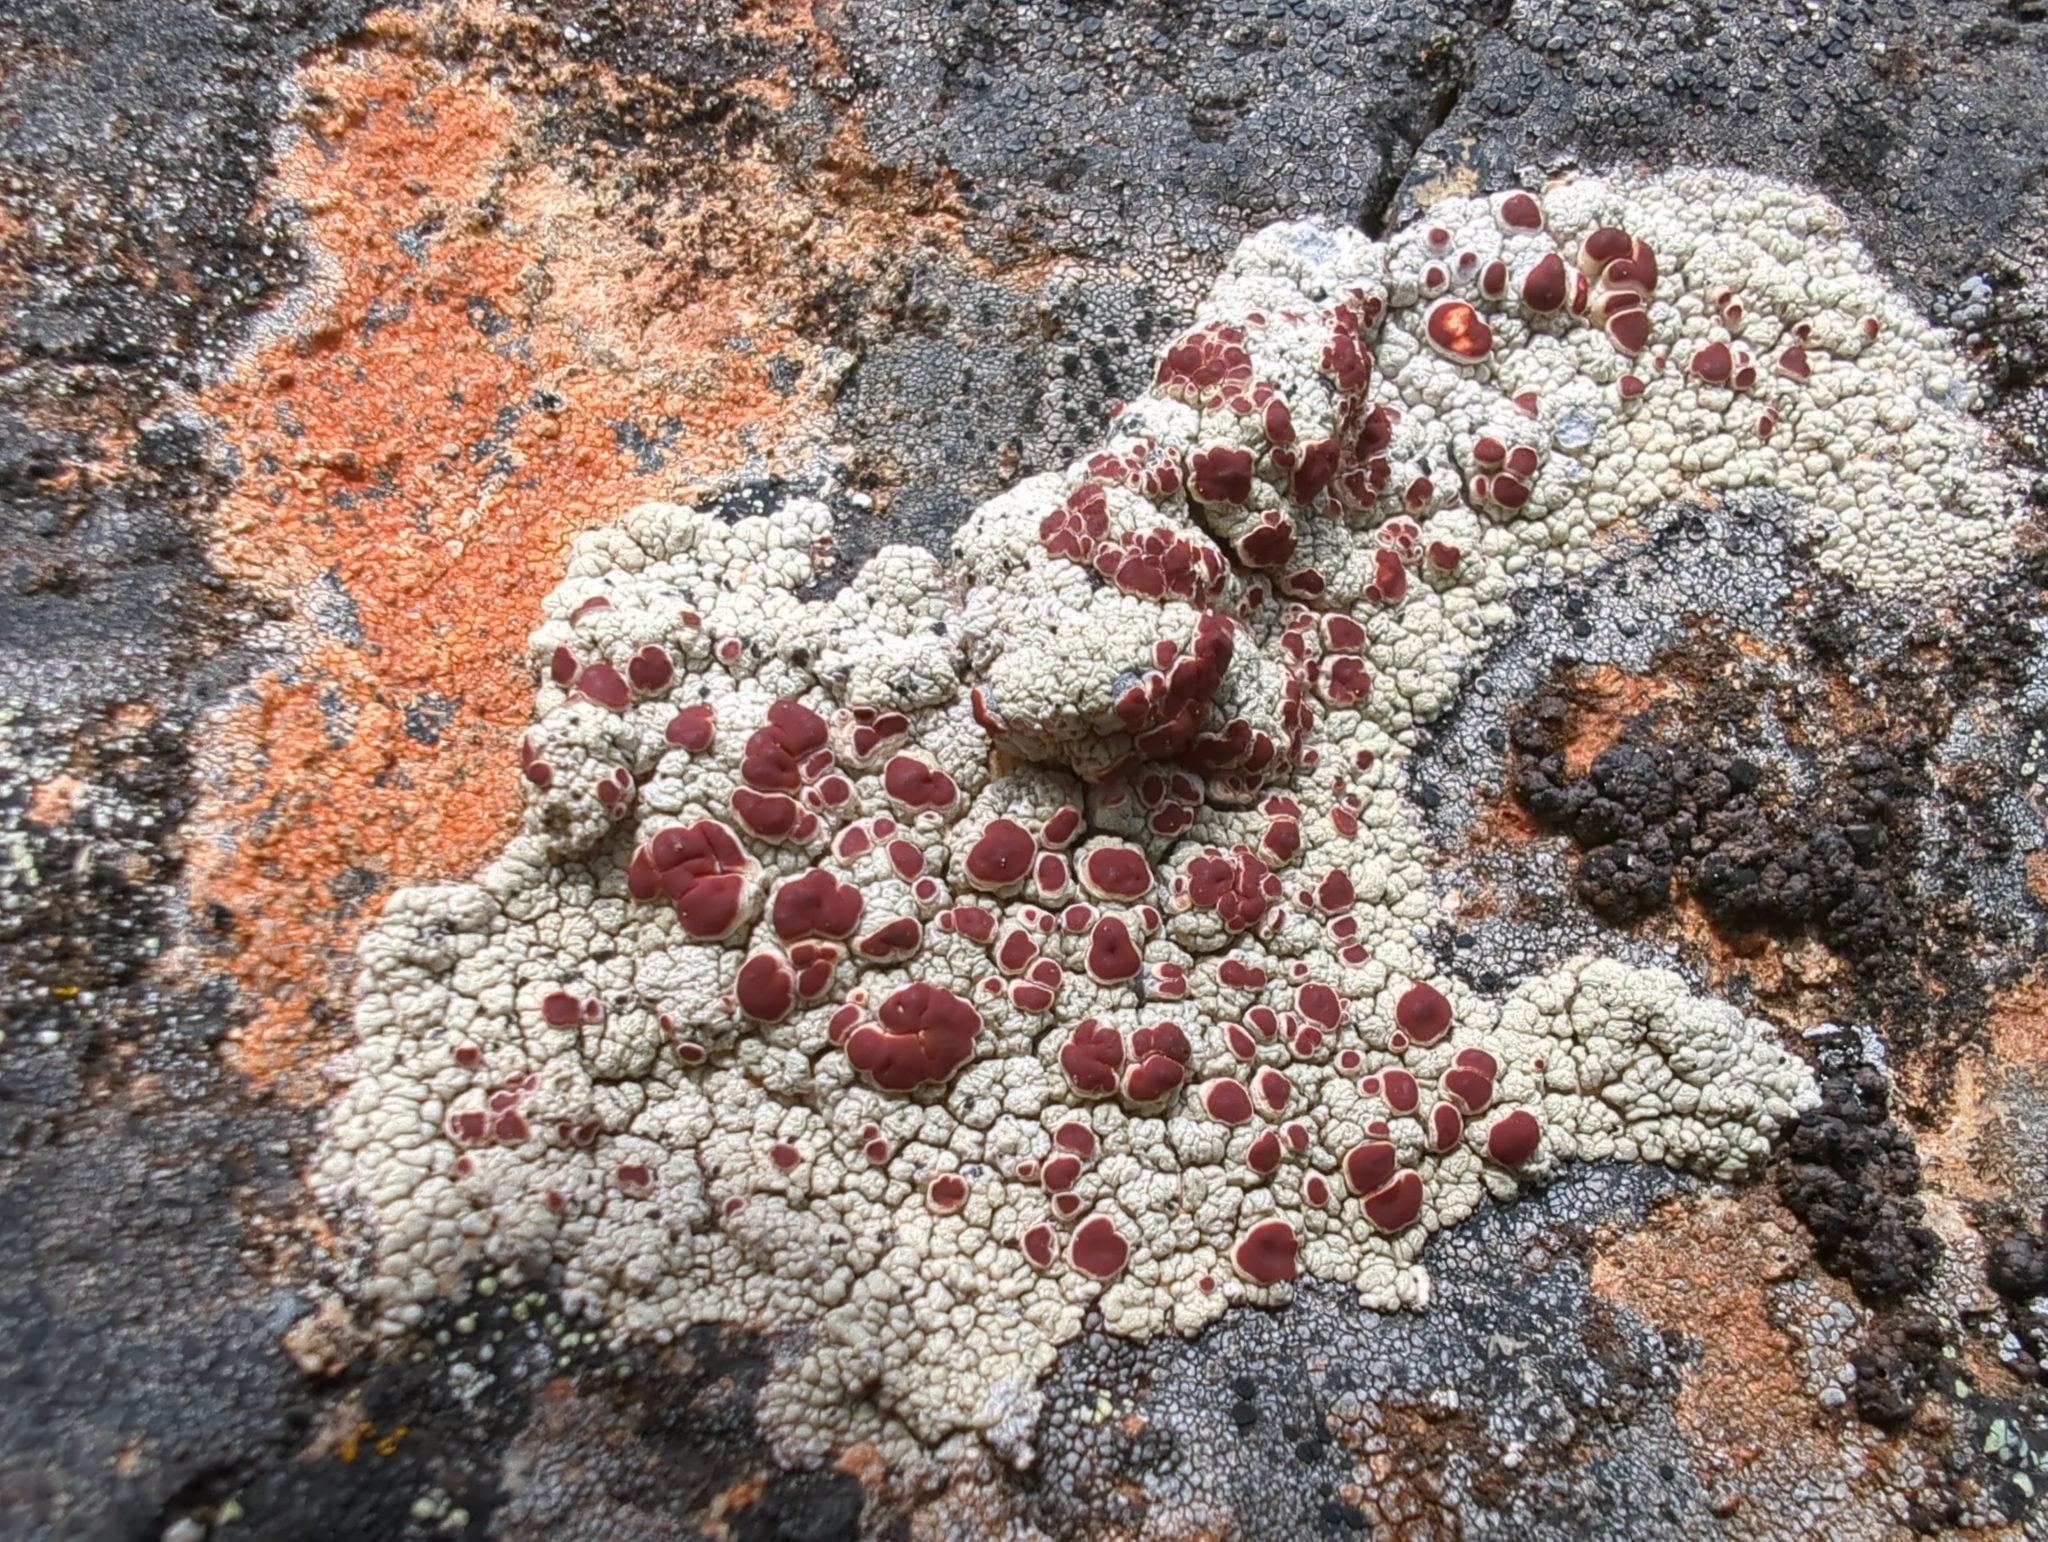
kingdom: Fungi
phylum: Ascomycota
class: Lecanoromycetes
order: Umbilicariales
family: Ophioparmaceae
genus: Ophioparma
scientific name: Ophioparma ventosa
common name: Blood-spot
